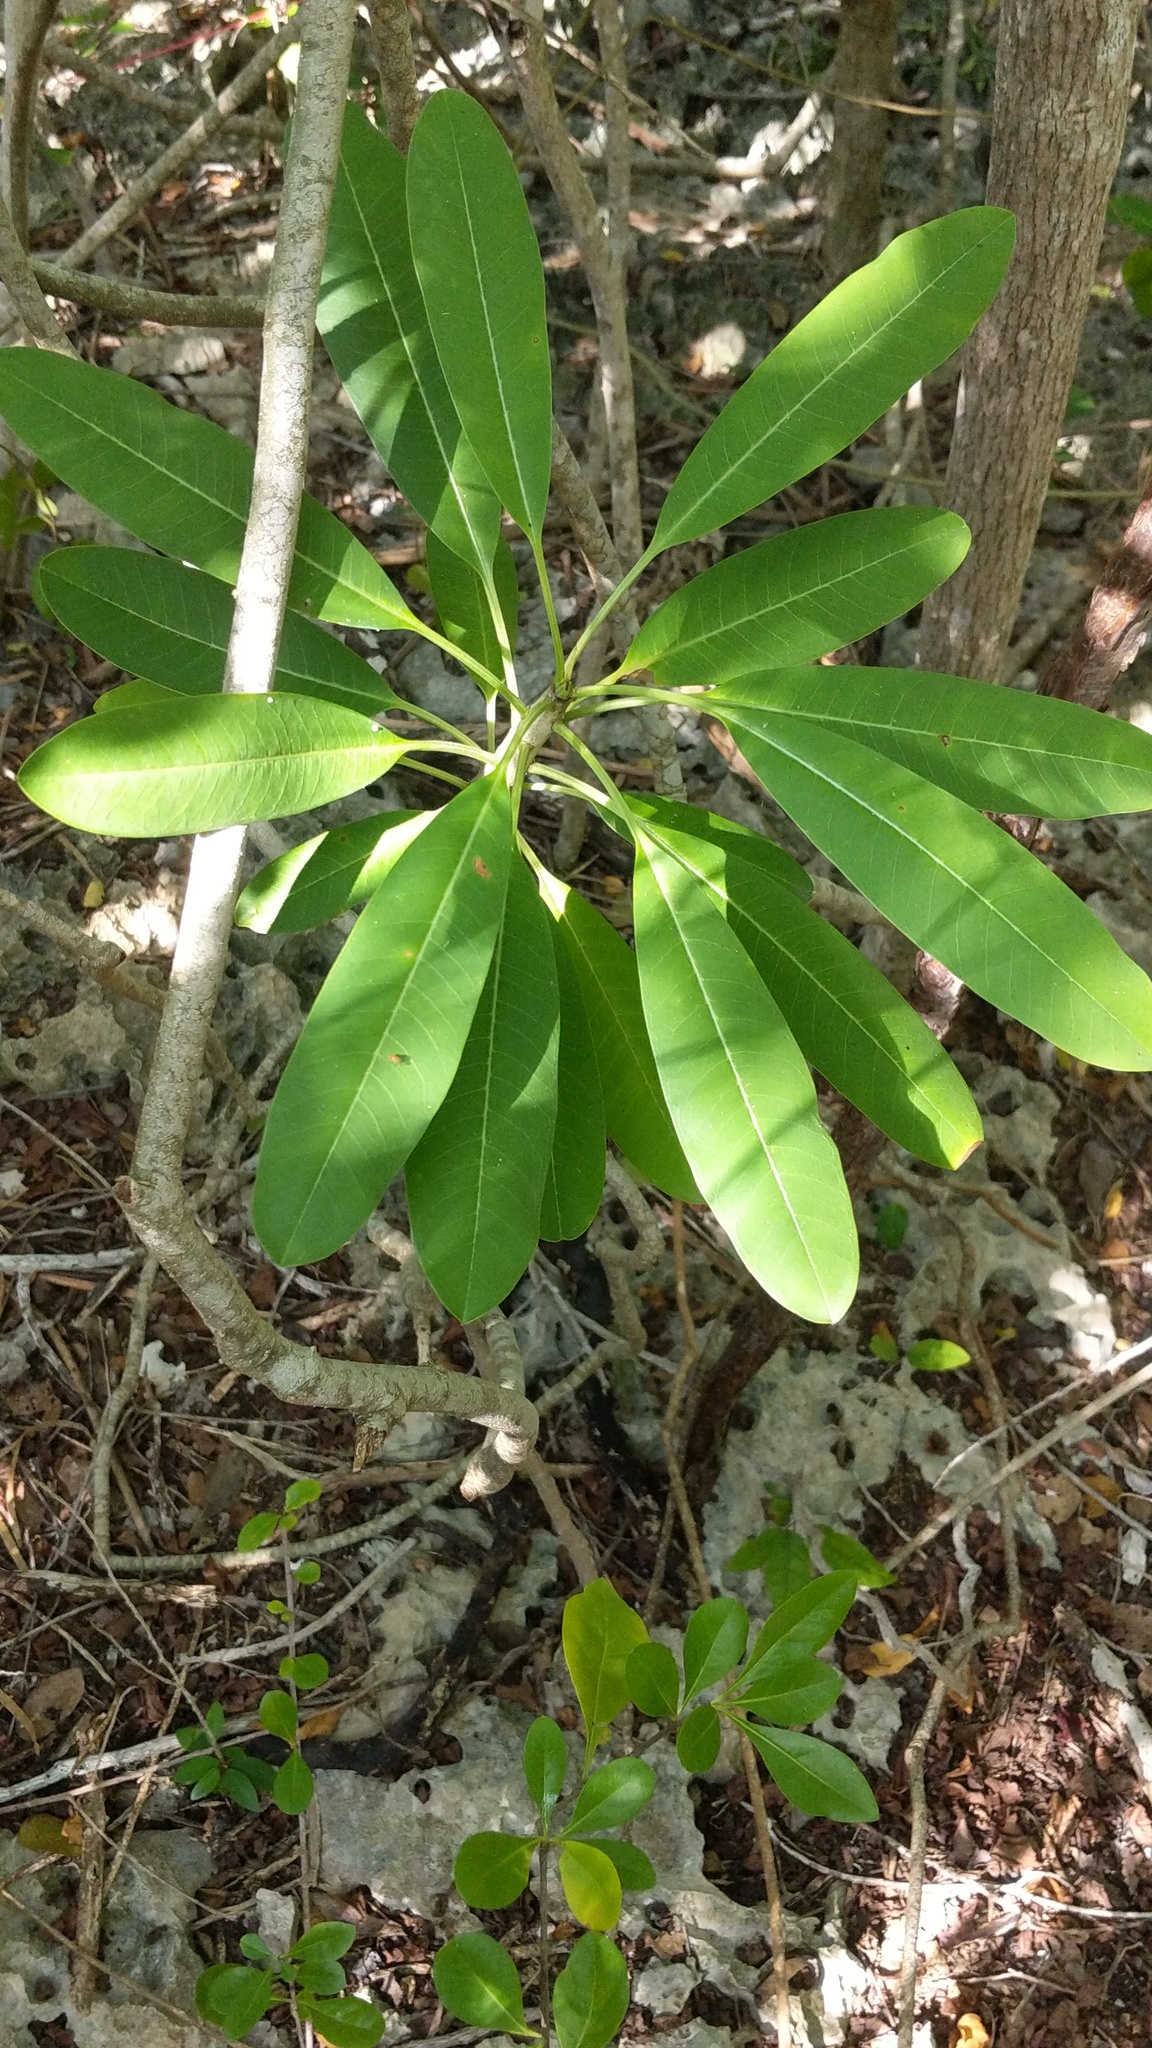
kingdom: Plantae
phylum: Tracheophyta
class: Magnoliopsida
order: Gentianales
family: Apocynaceae
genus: Plumeria
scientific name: Plumeria obtusa
